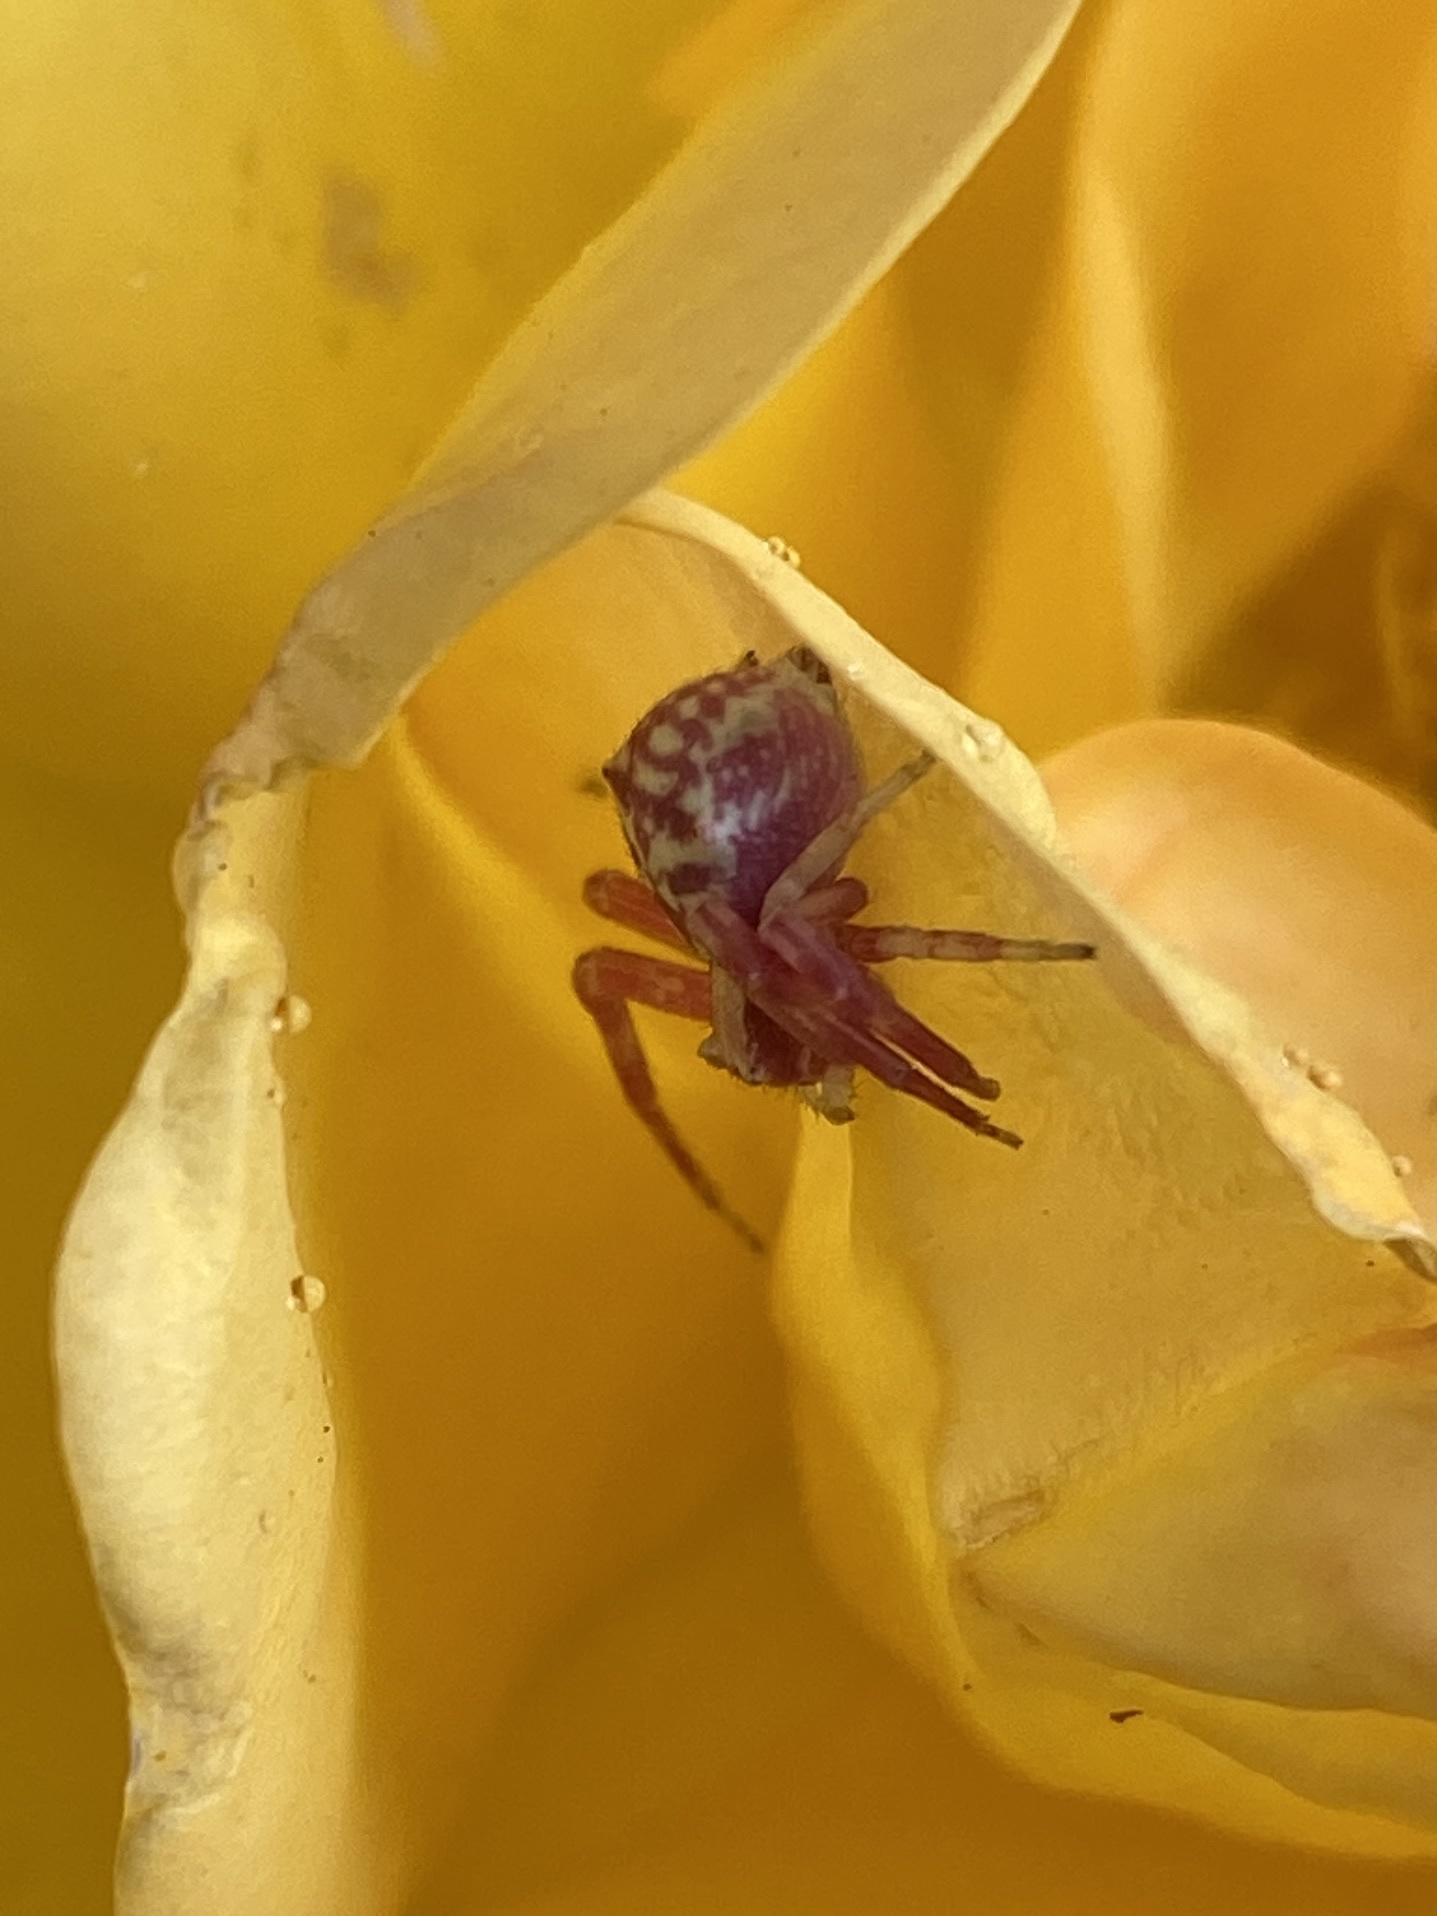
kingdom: Animalia
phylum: Arthropoda
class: Arachnida
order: Araneae
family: Thomisidae
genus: Thomisus
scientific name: Thomisus citrinellus
